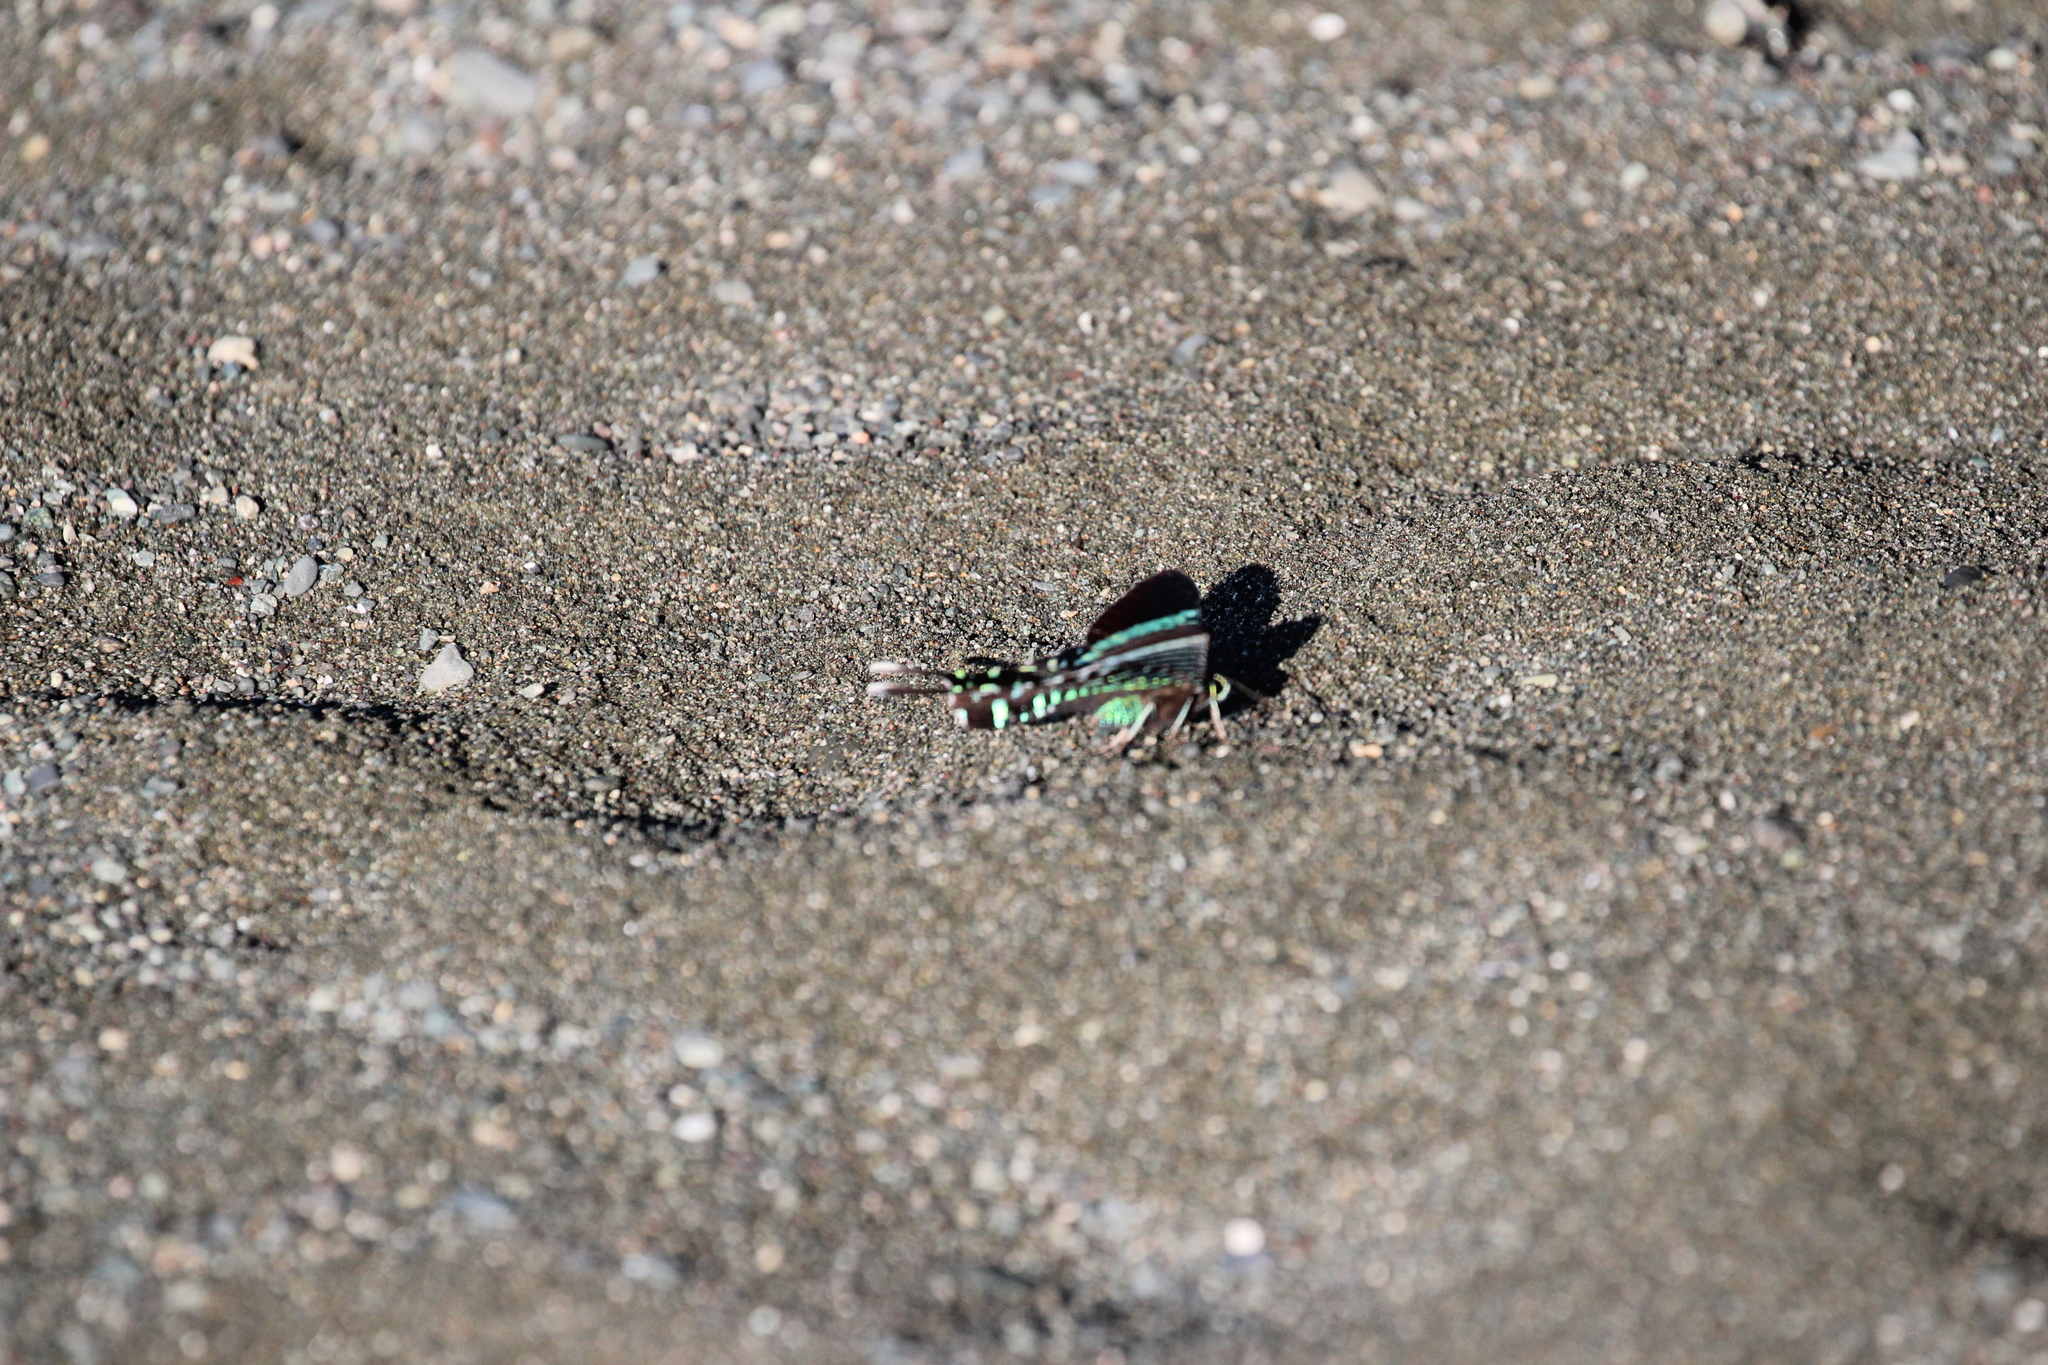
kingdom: Animalia
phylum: Arthropoda
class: Insecta
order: Lepidoptera
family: Uraniidae
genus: Urania
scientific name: Urania fulgens
